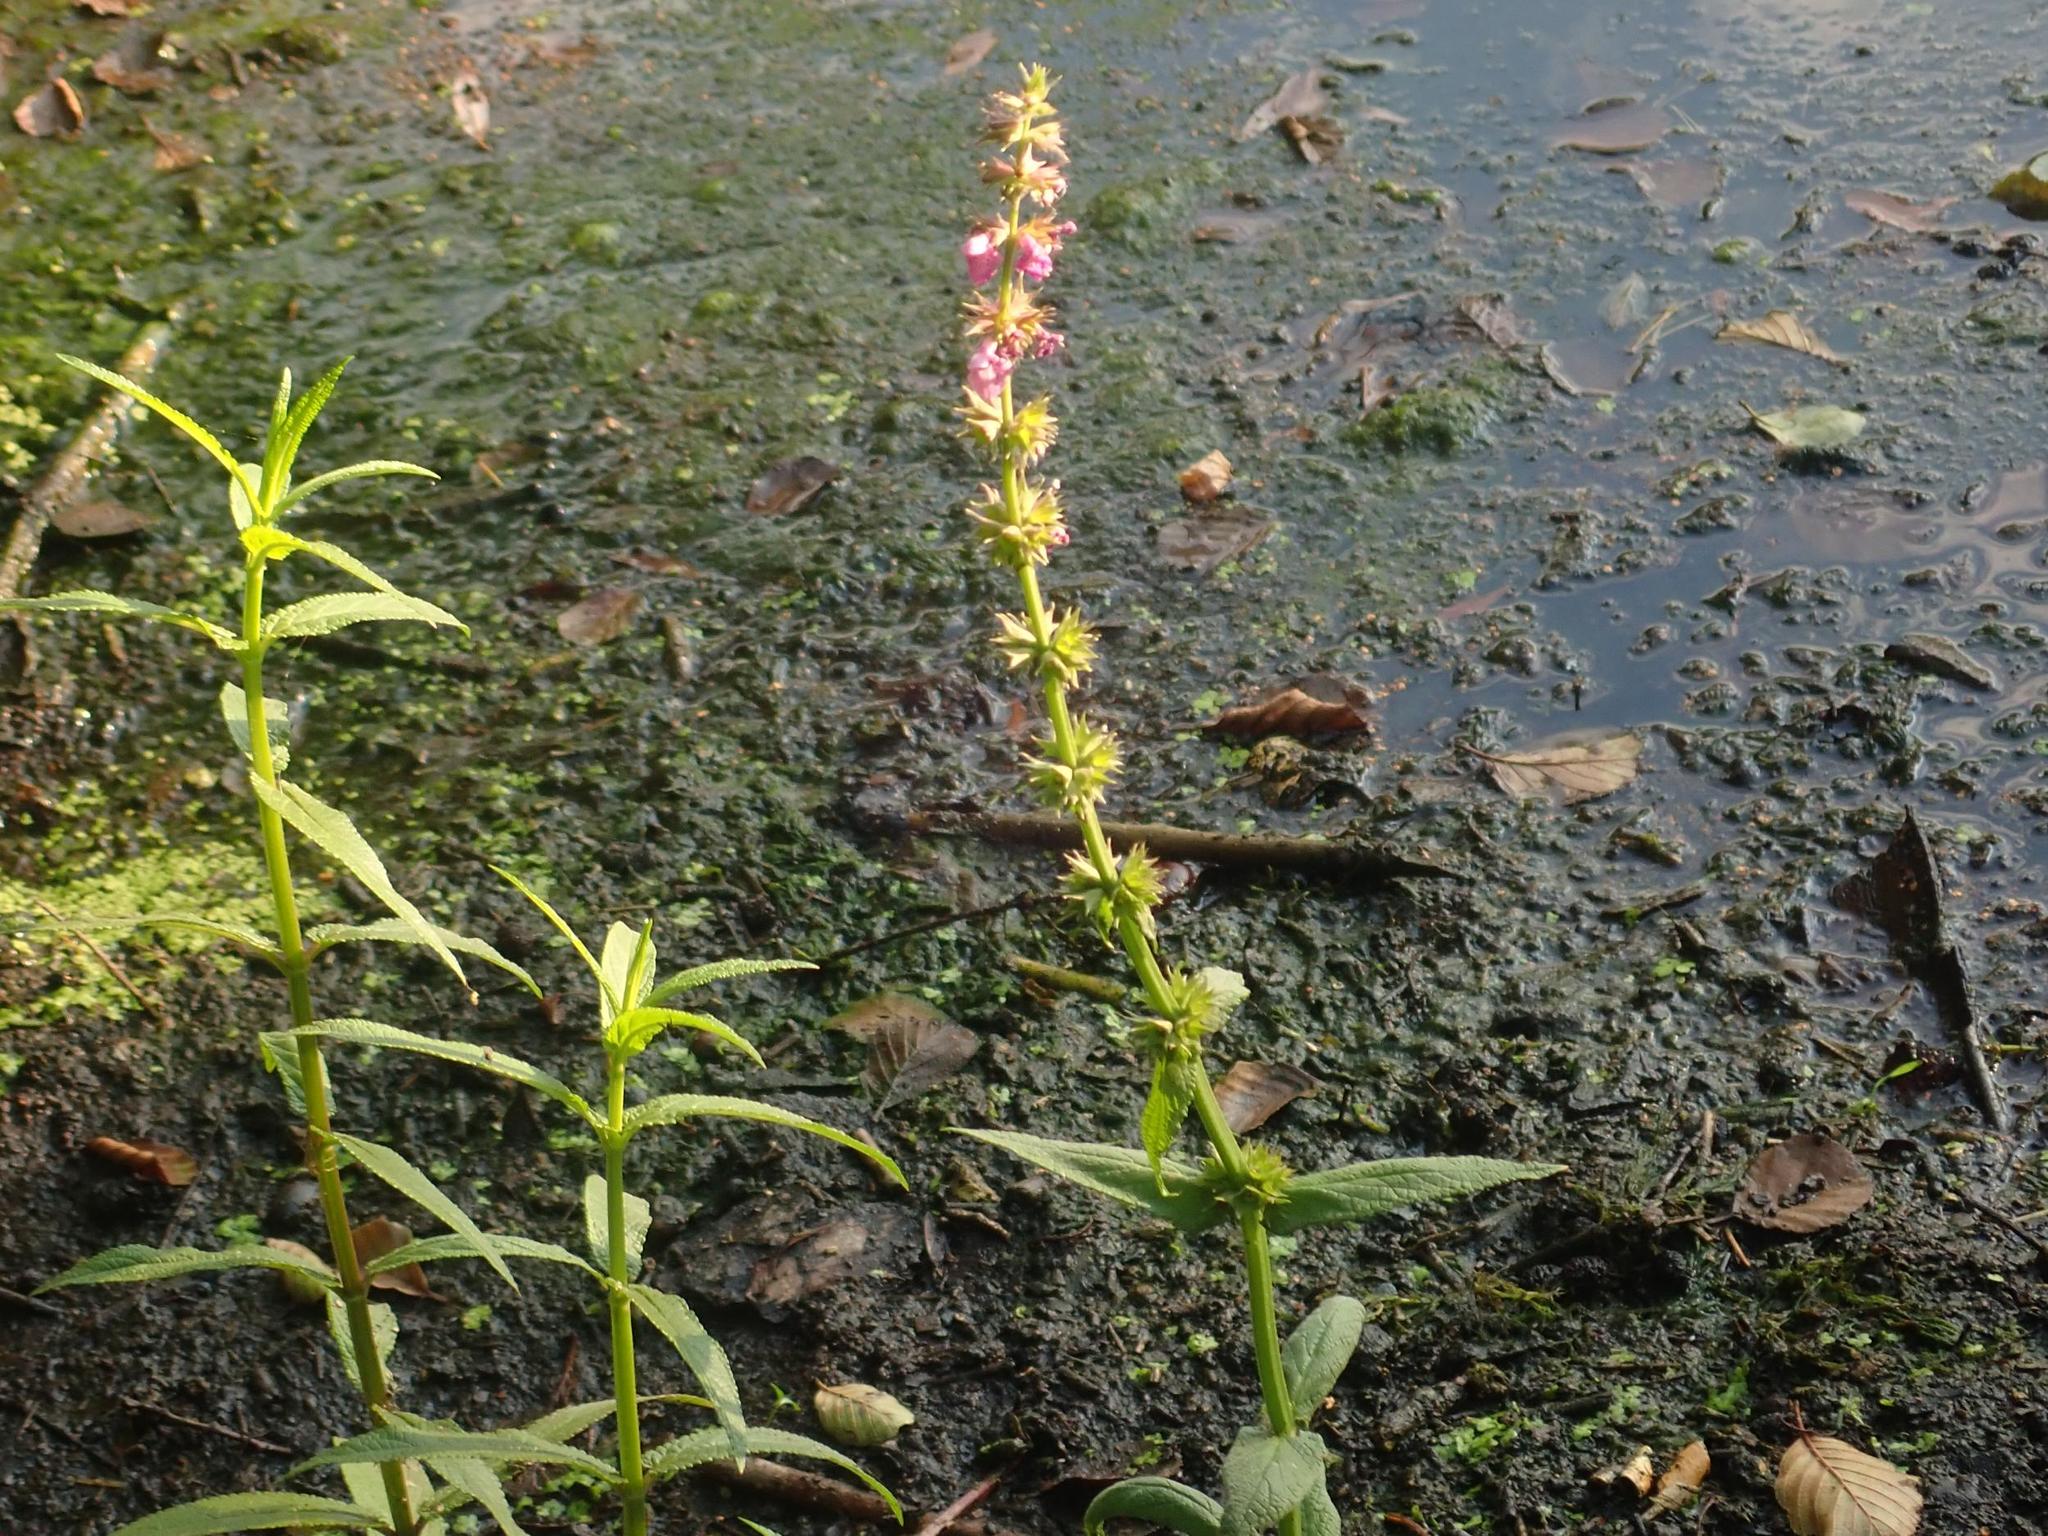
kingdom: Plantae
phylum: Tracheophyta
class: Magnoliopsida
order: Lamiales
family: Lamiaceae
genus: Stachys
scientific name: Stachys palustris
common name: Marsh woundwort
